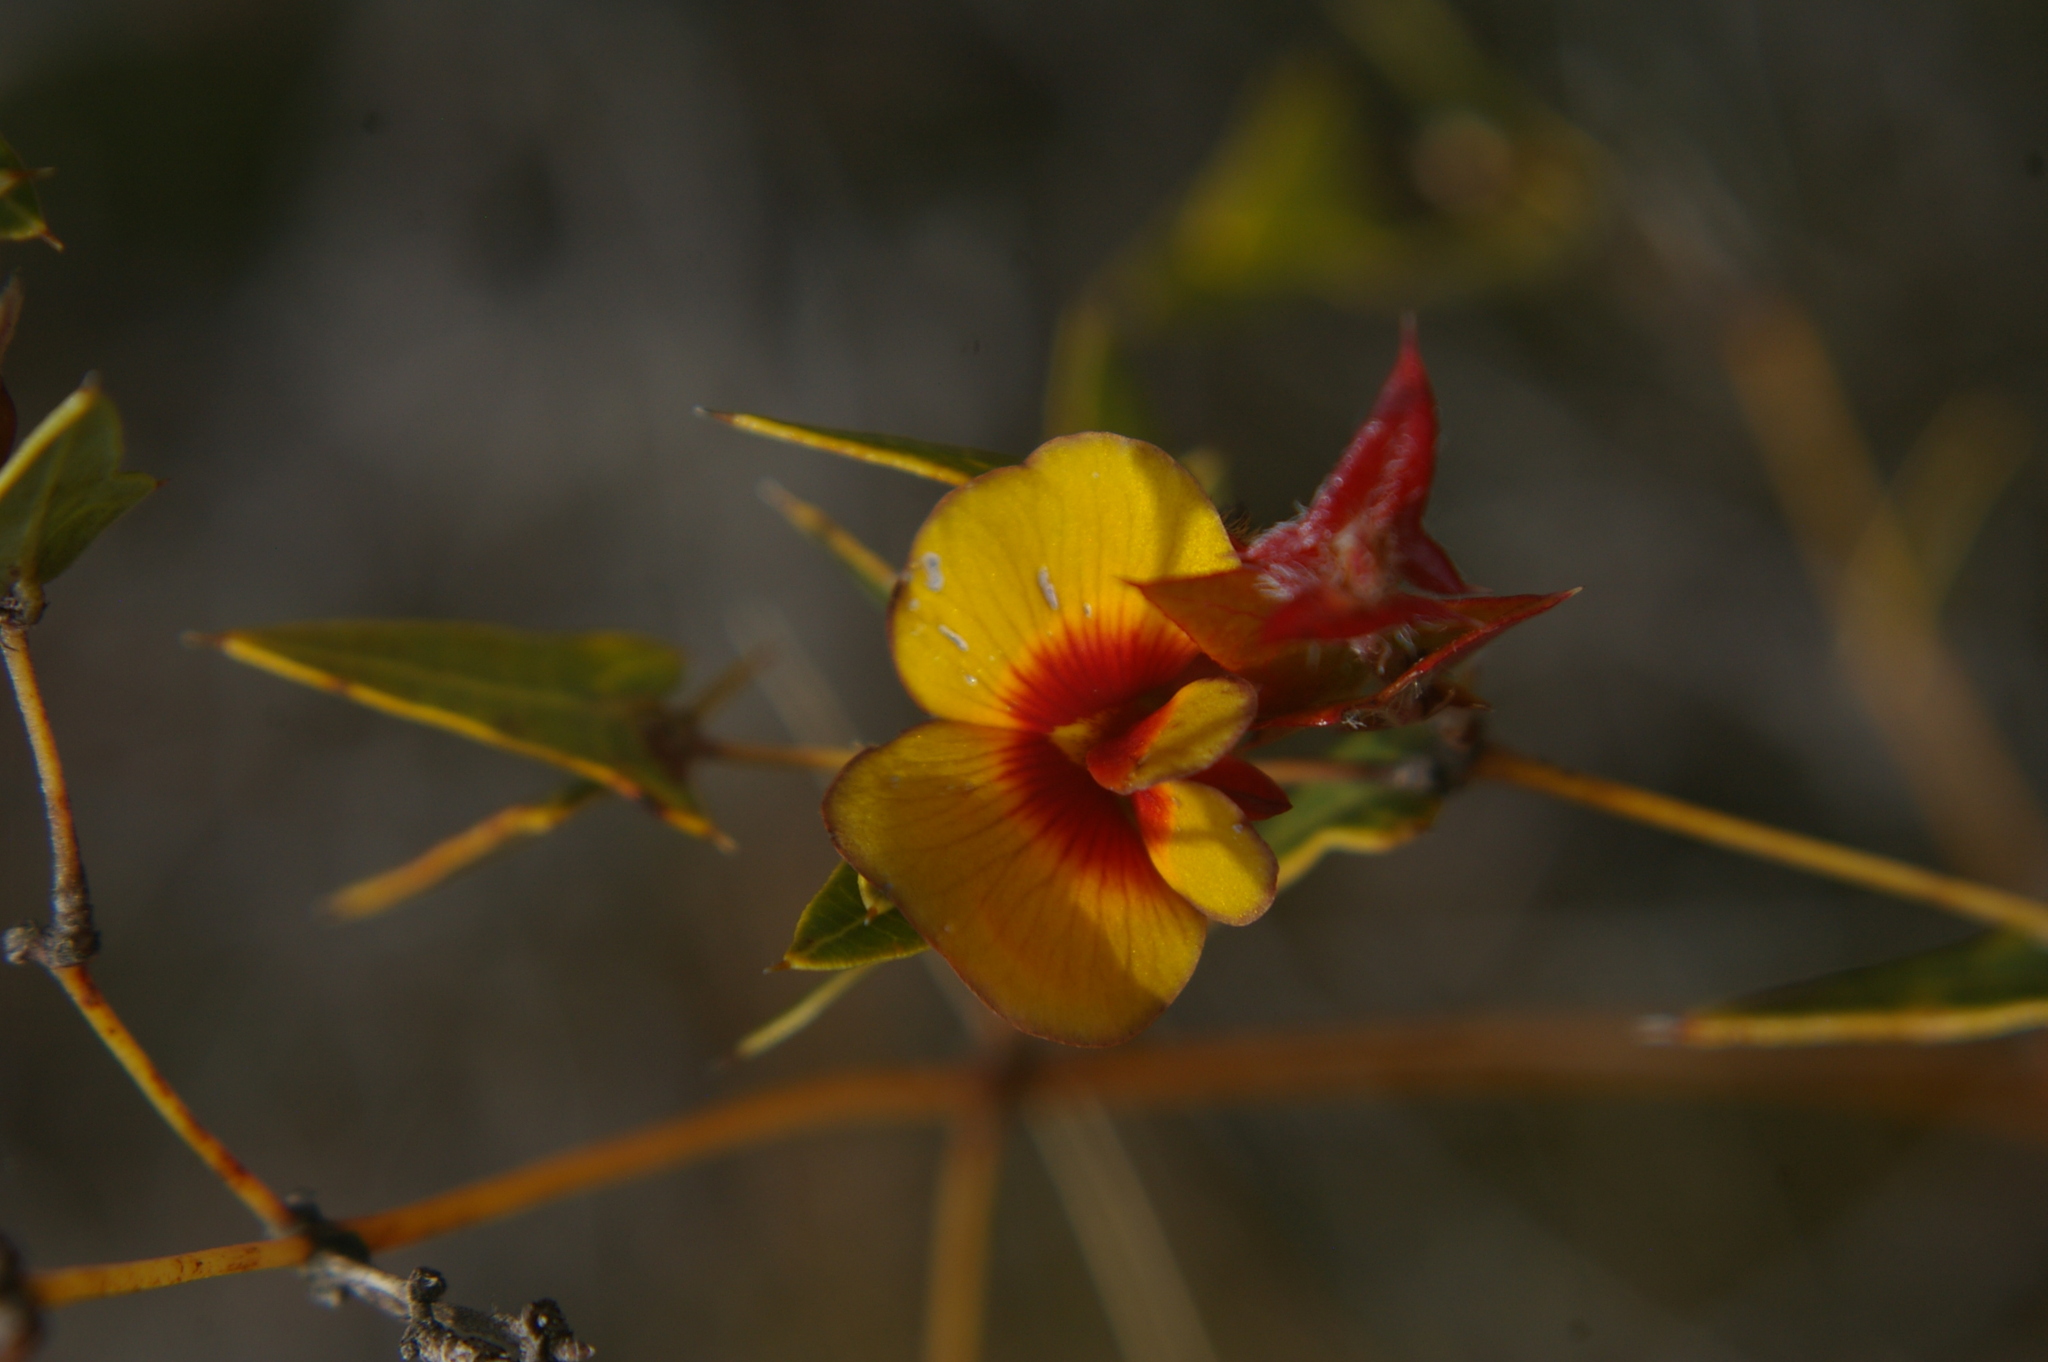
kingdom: Plantae
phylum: Tracheophyta
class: Magnoliopsida
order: Fabales
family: Fabaceae
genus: Platylobium
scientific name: Platylobium obtusangulum
